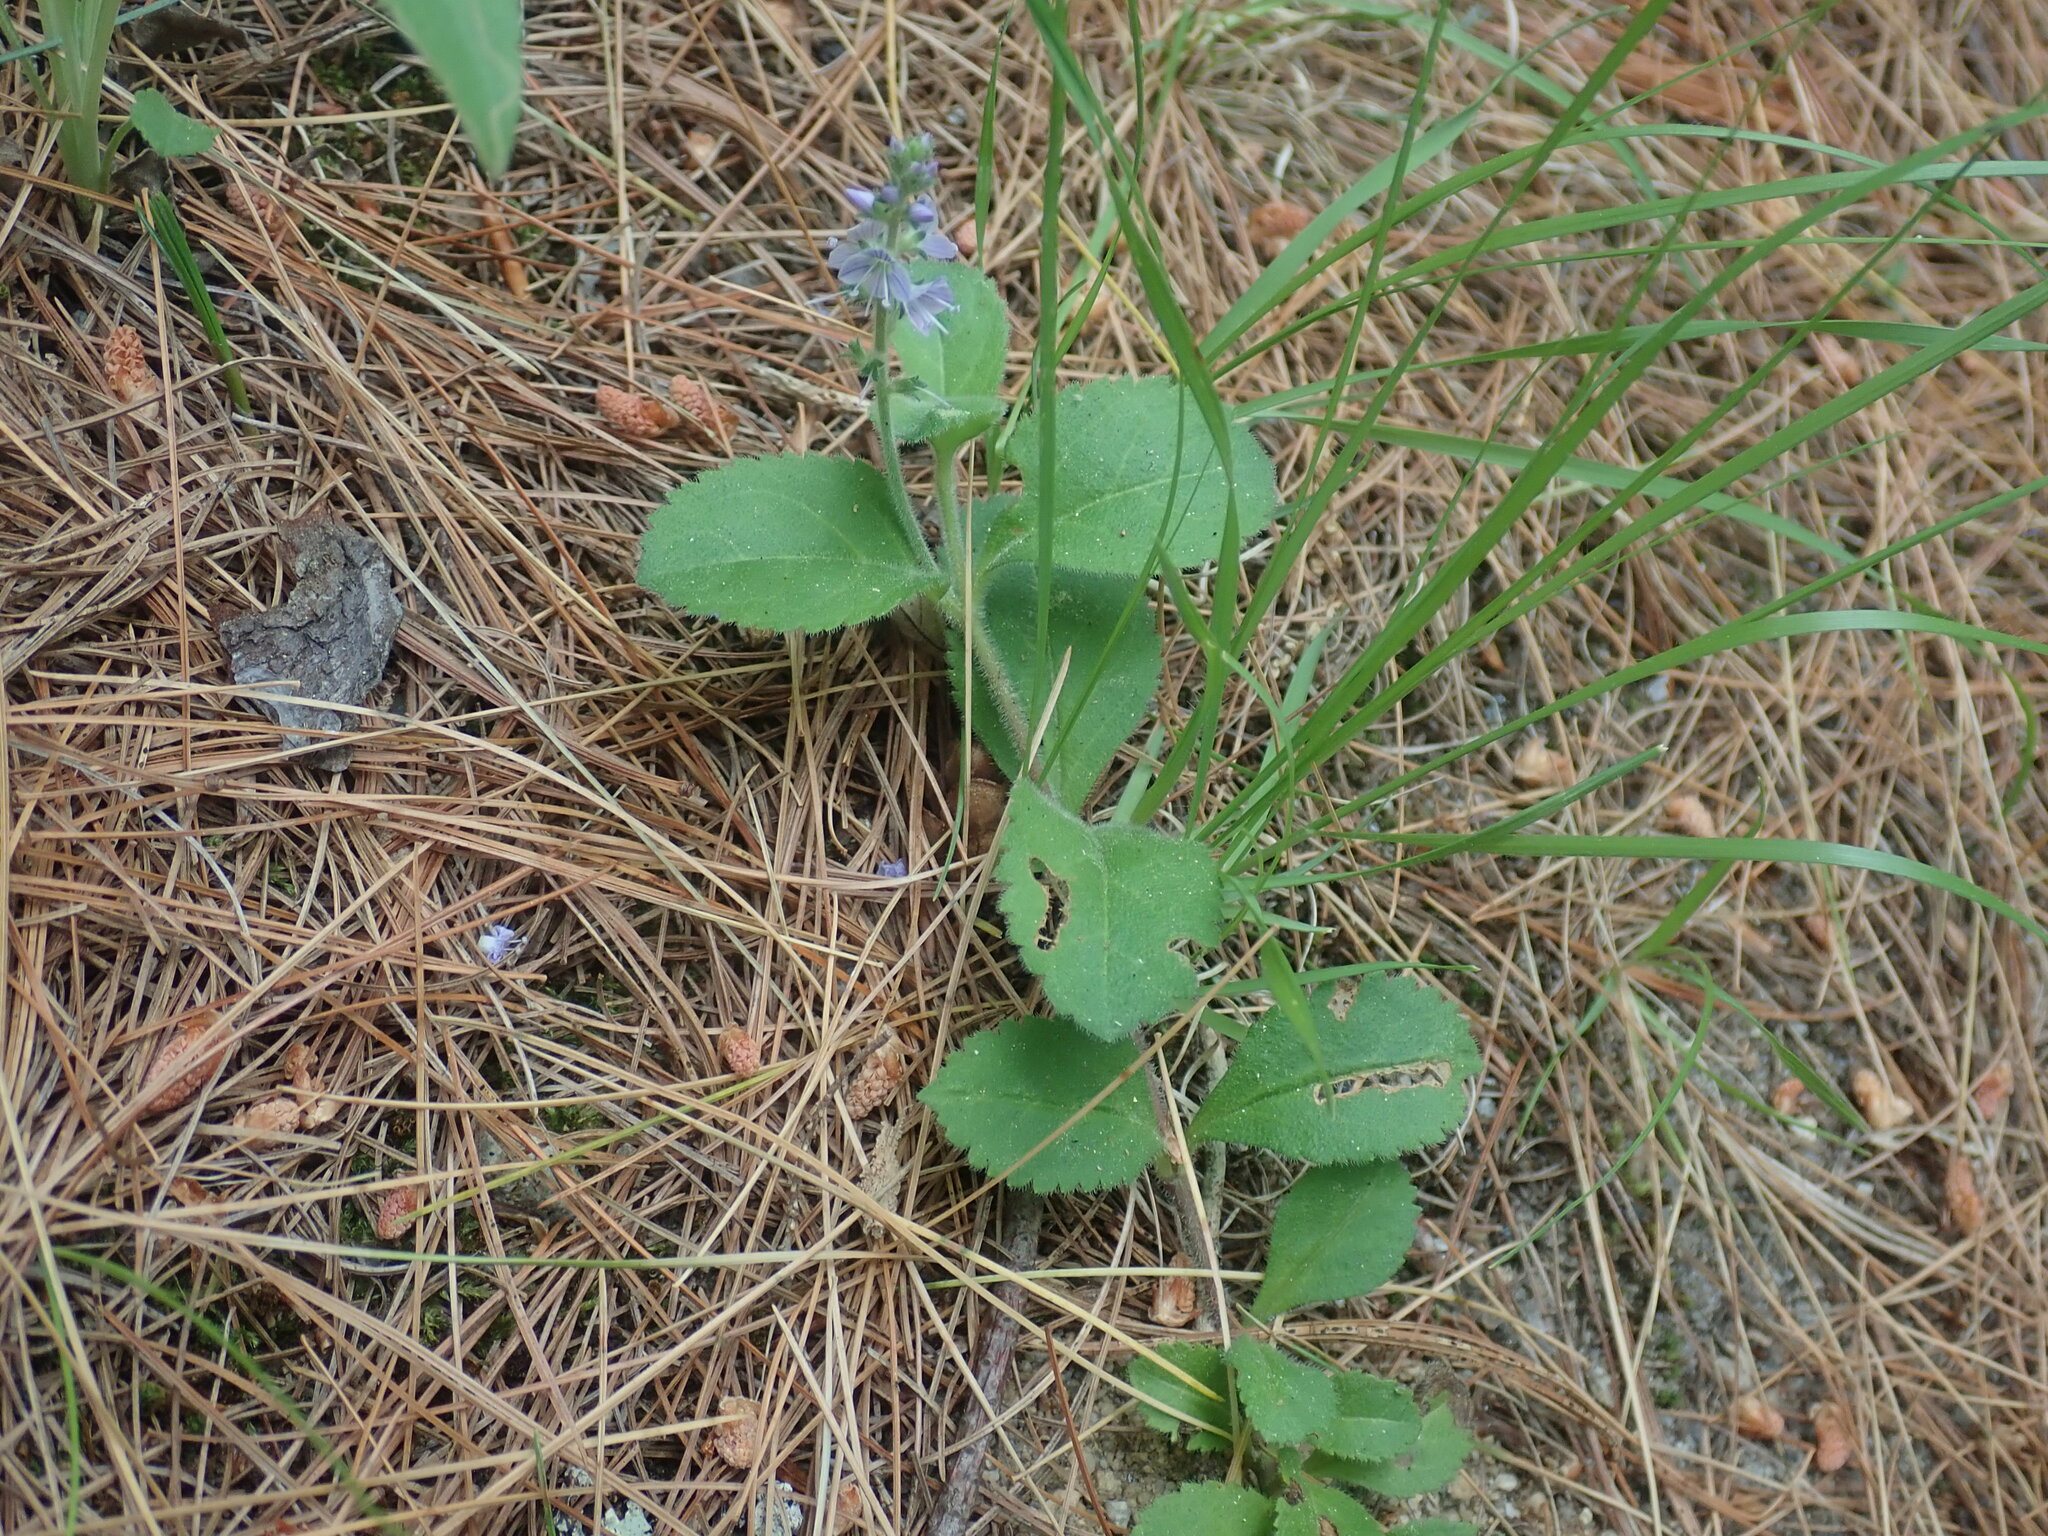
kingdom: Plantae
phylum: Tracheophyta
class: Magnoliopsida
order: Lamiales
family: Plantaginaceae
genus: Veronica
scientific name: Veronica officinalis
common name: Common speedwell
